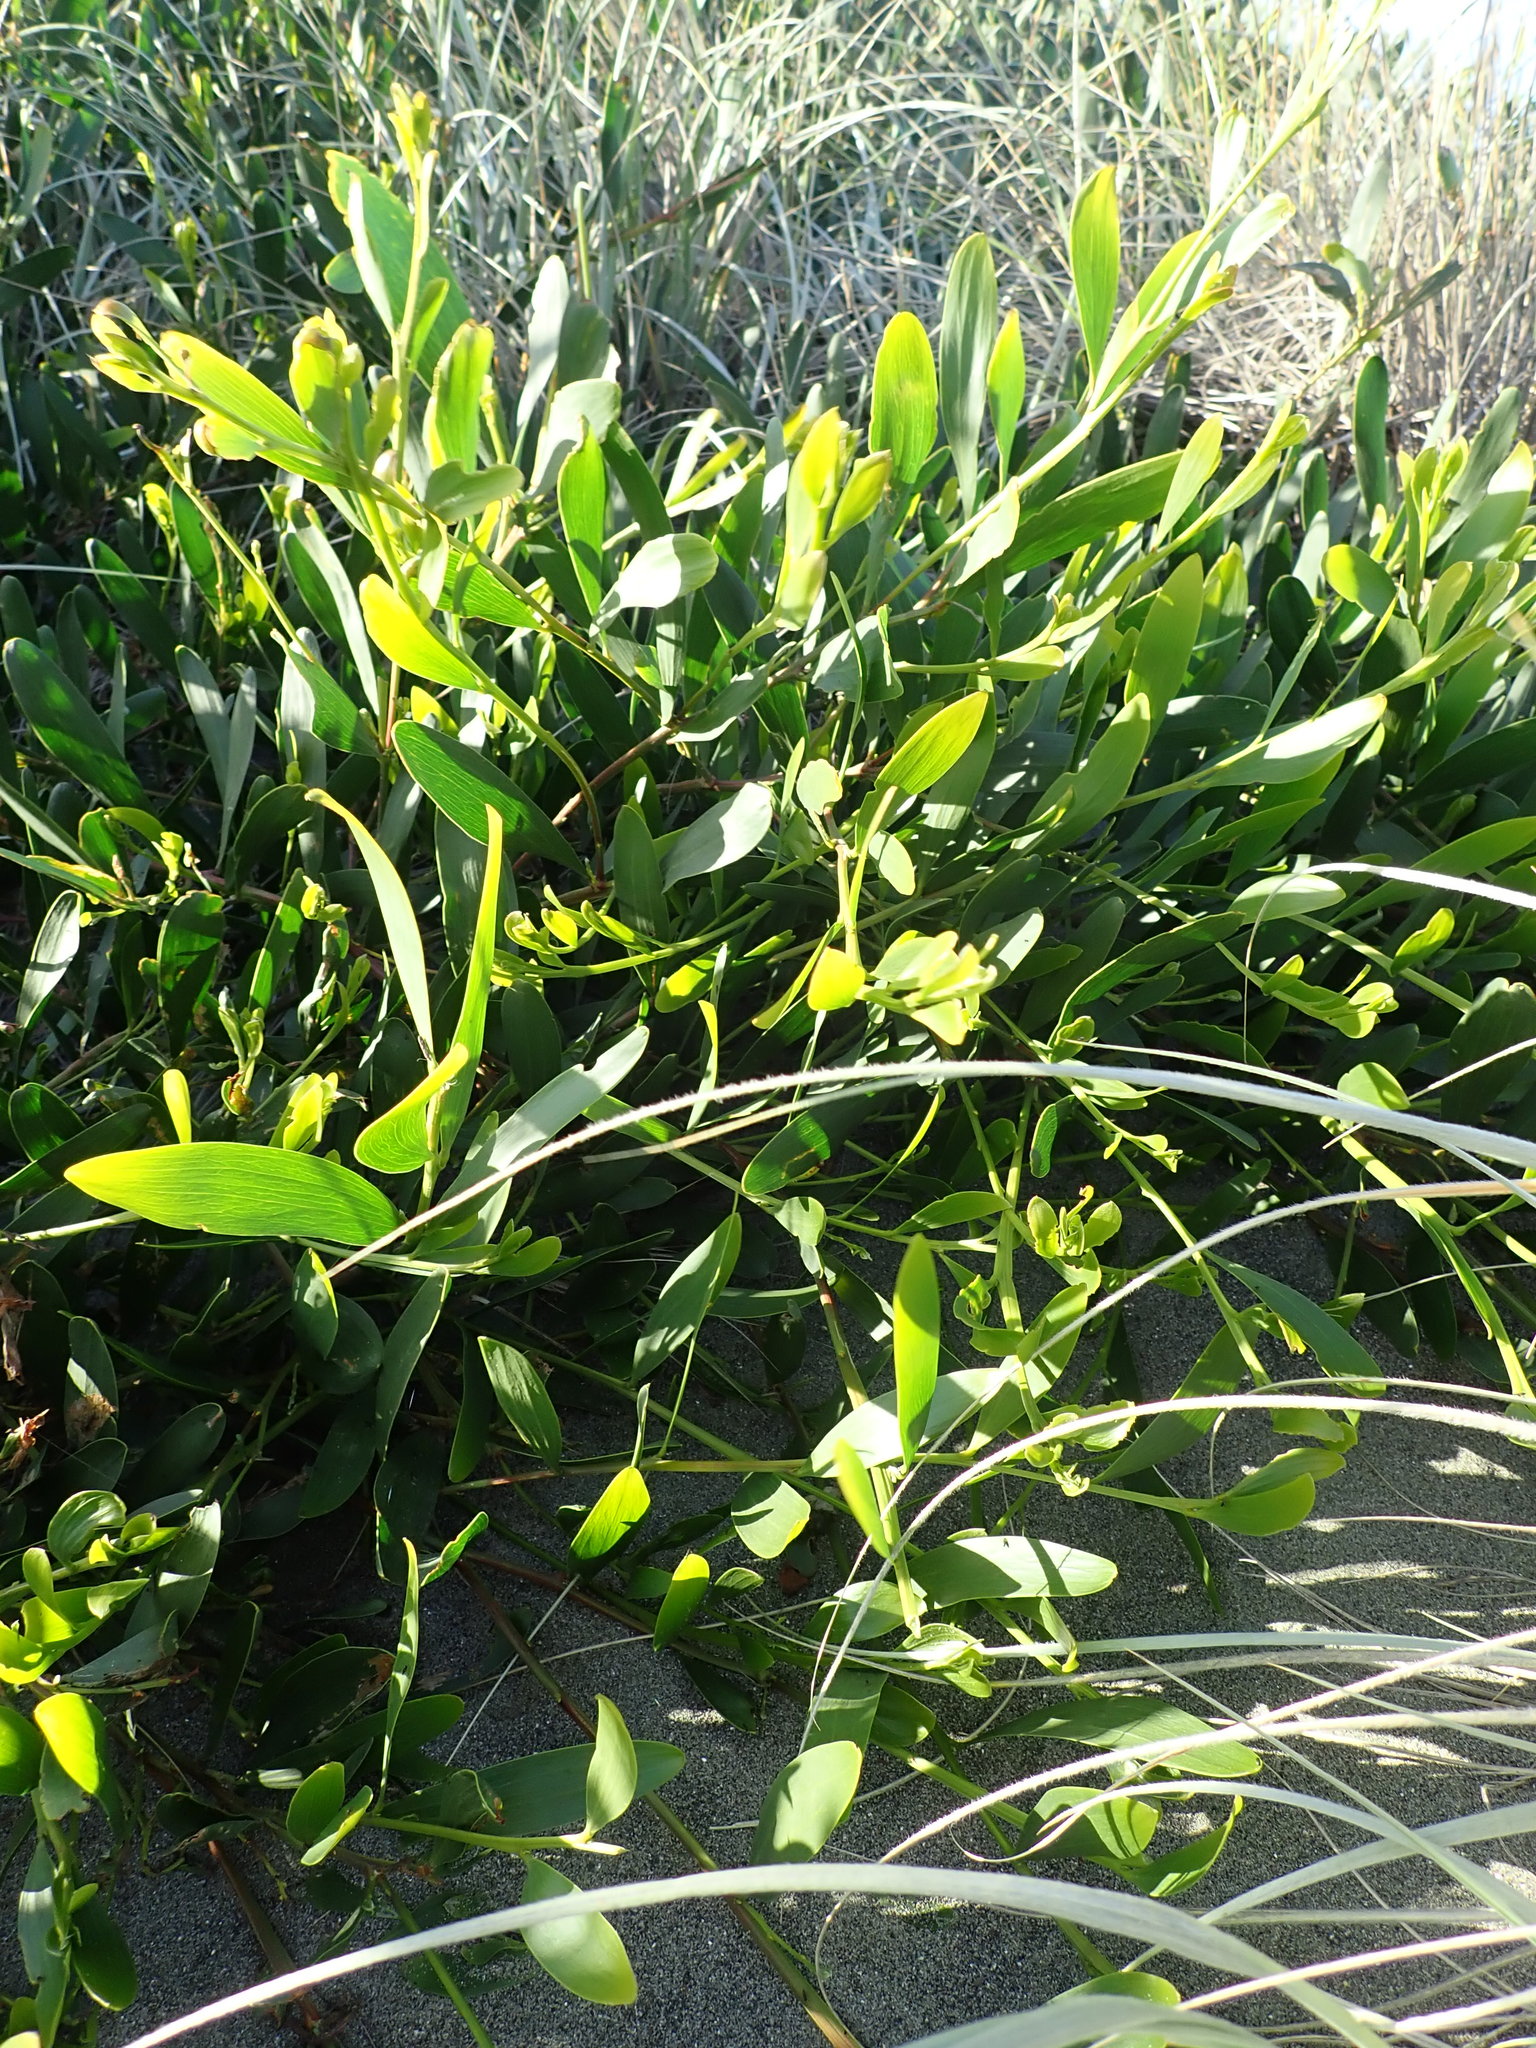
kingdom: Plantae
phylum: Tracheophyta
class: Magnoliopsida
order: Fabales
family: Fabaceae
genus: Acacia
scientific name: Acacia longifolia
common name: Sydney golden wattle
